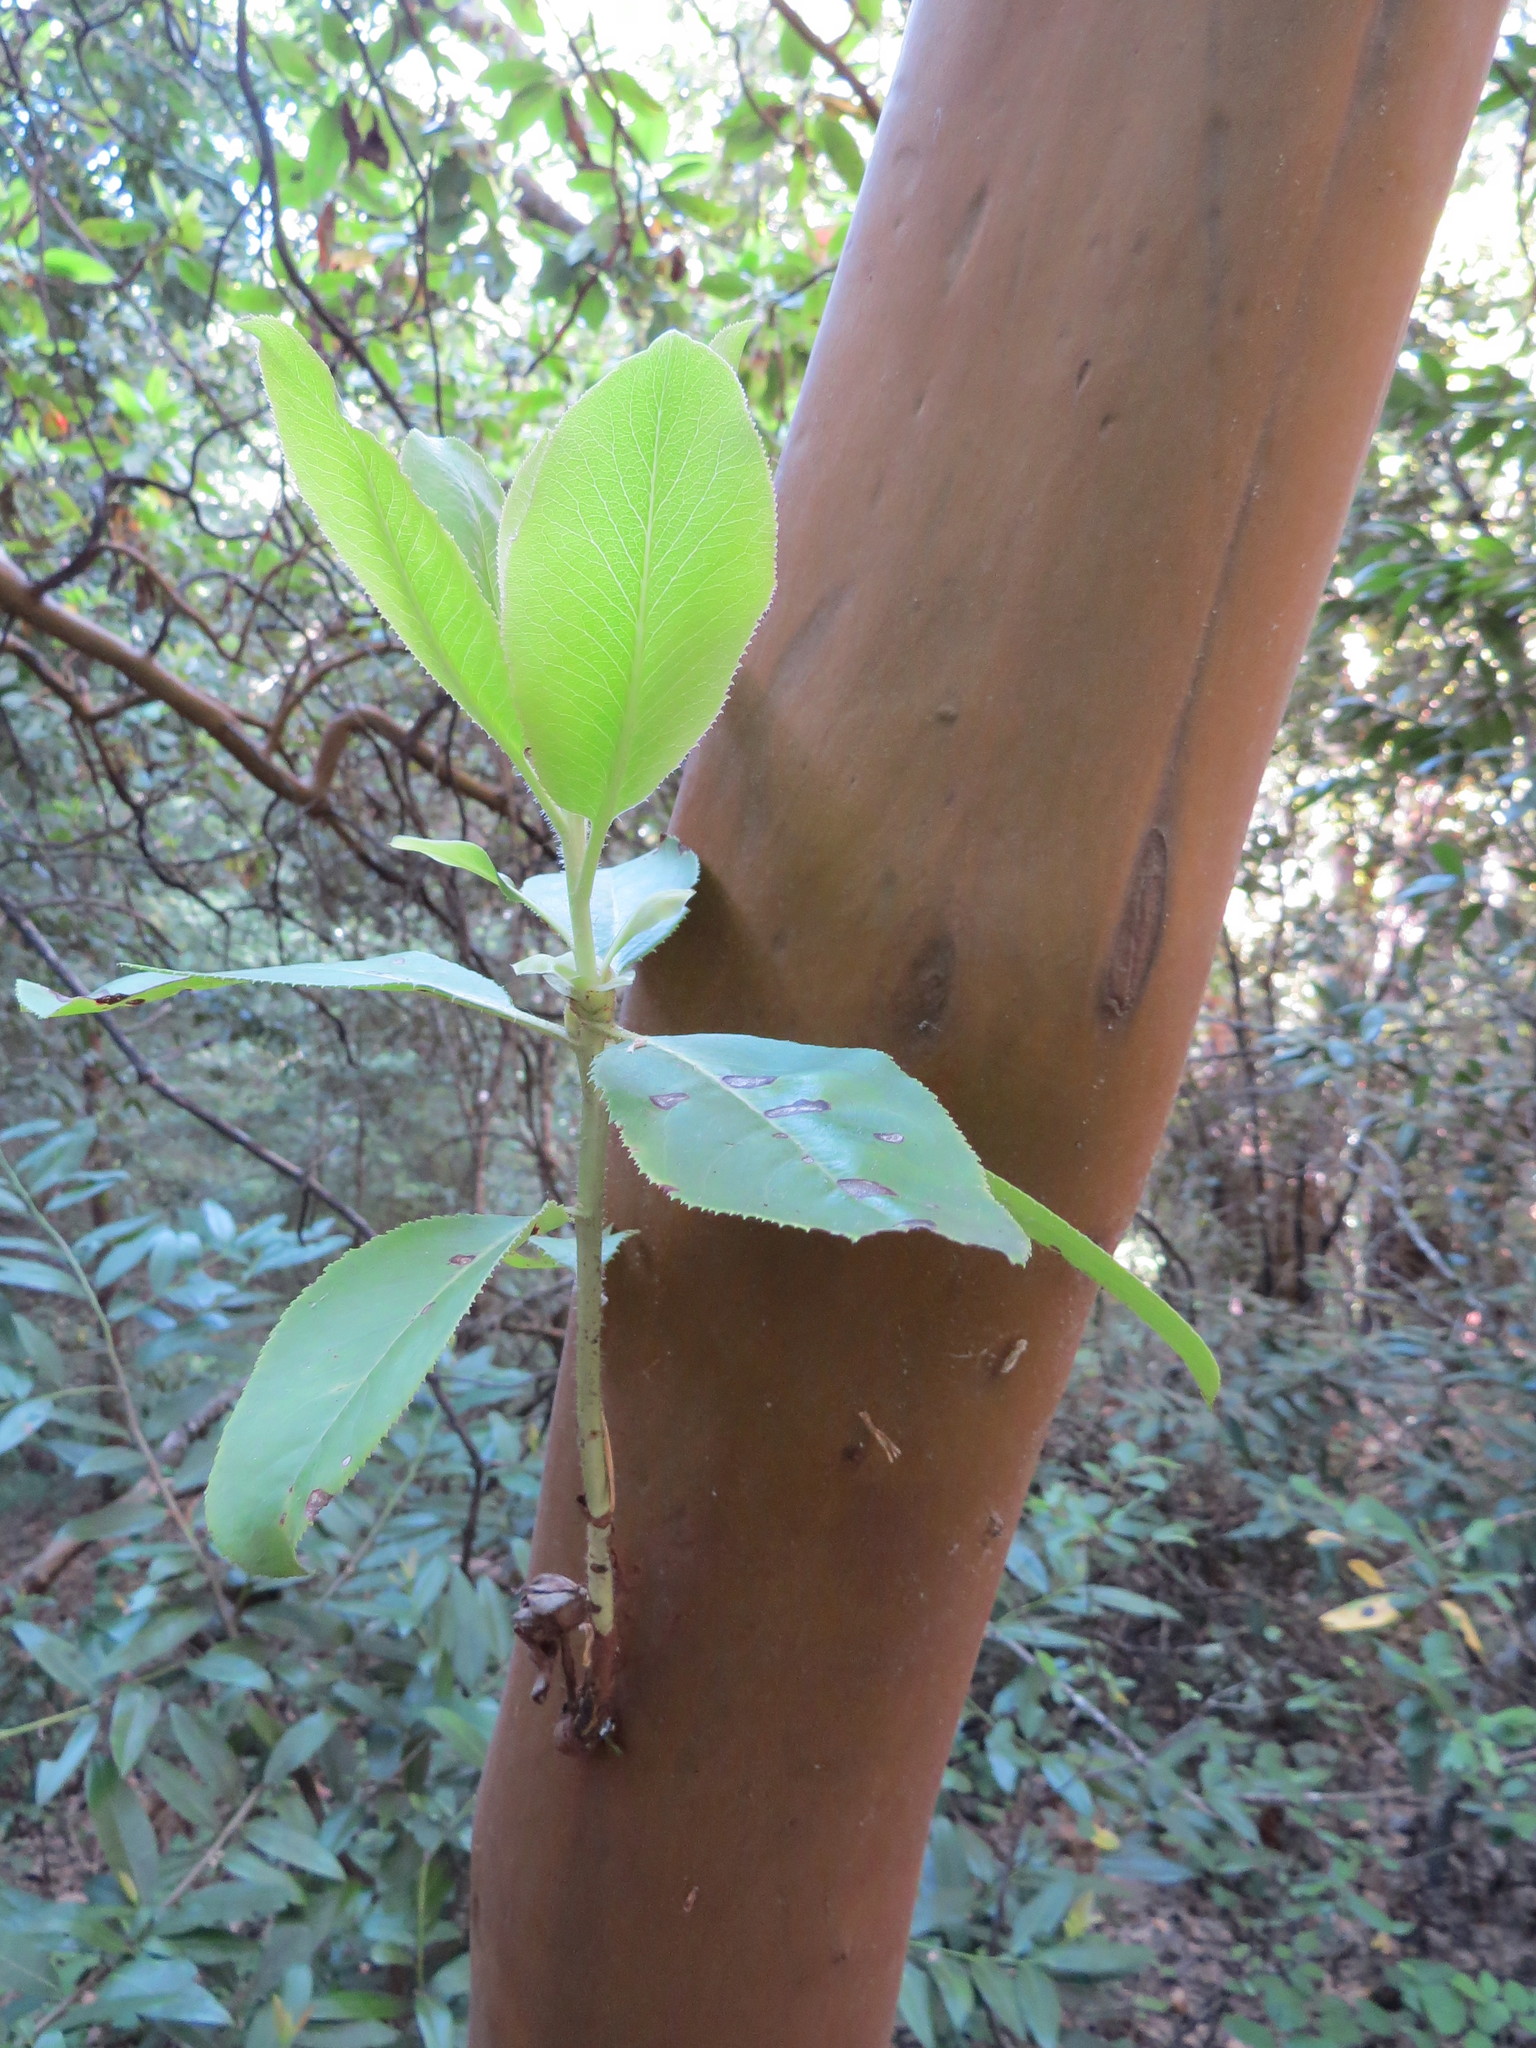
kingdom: Plantae
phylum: Tracheophyta
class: Magnoliopsida
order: Ericales
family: Ericaceae
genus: Arbutus
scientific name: Arbutus menziesii
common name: Pacific madrone
